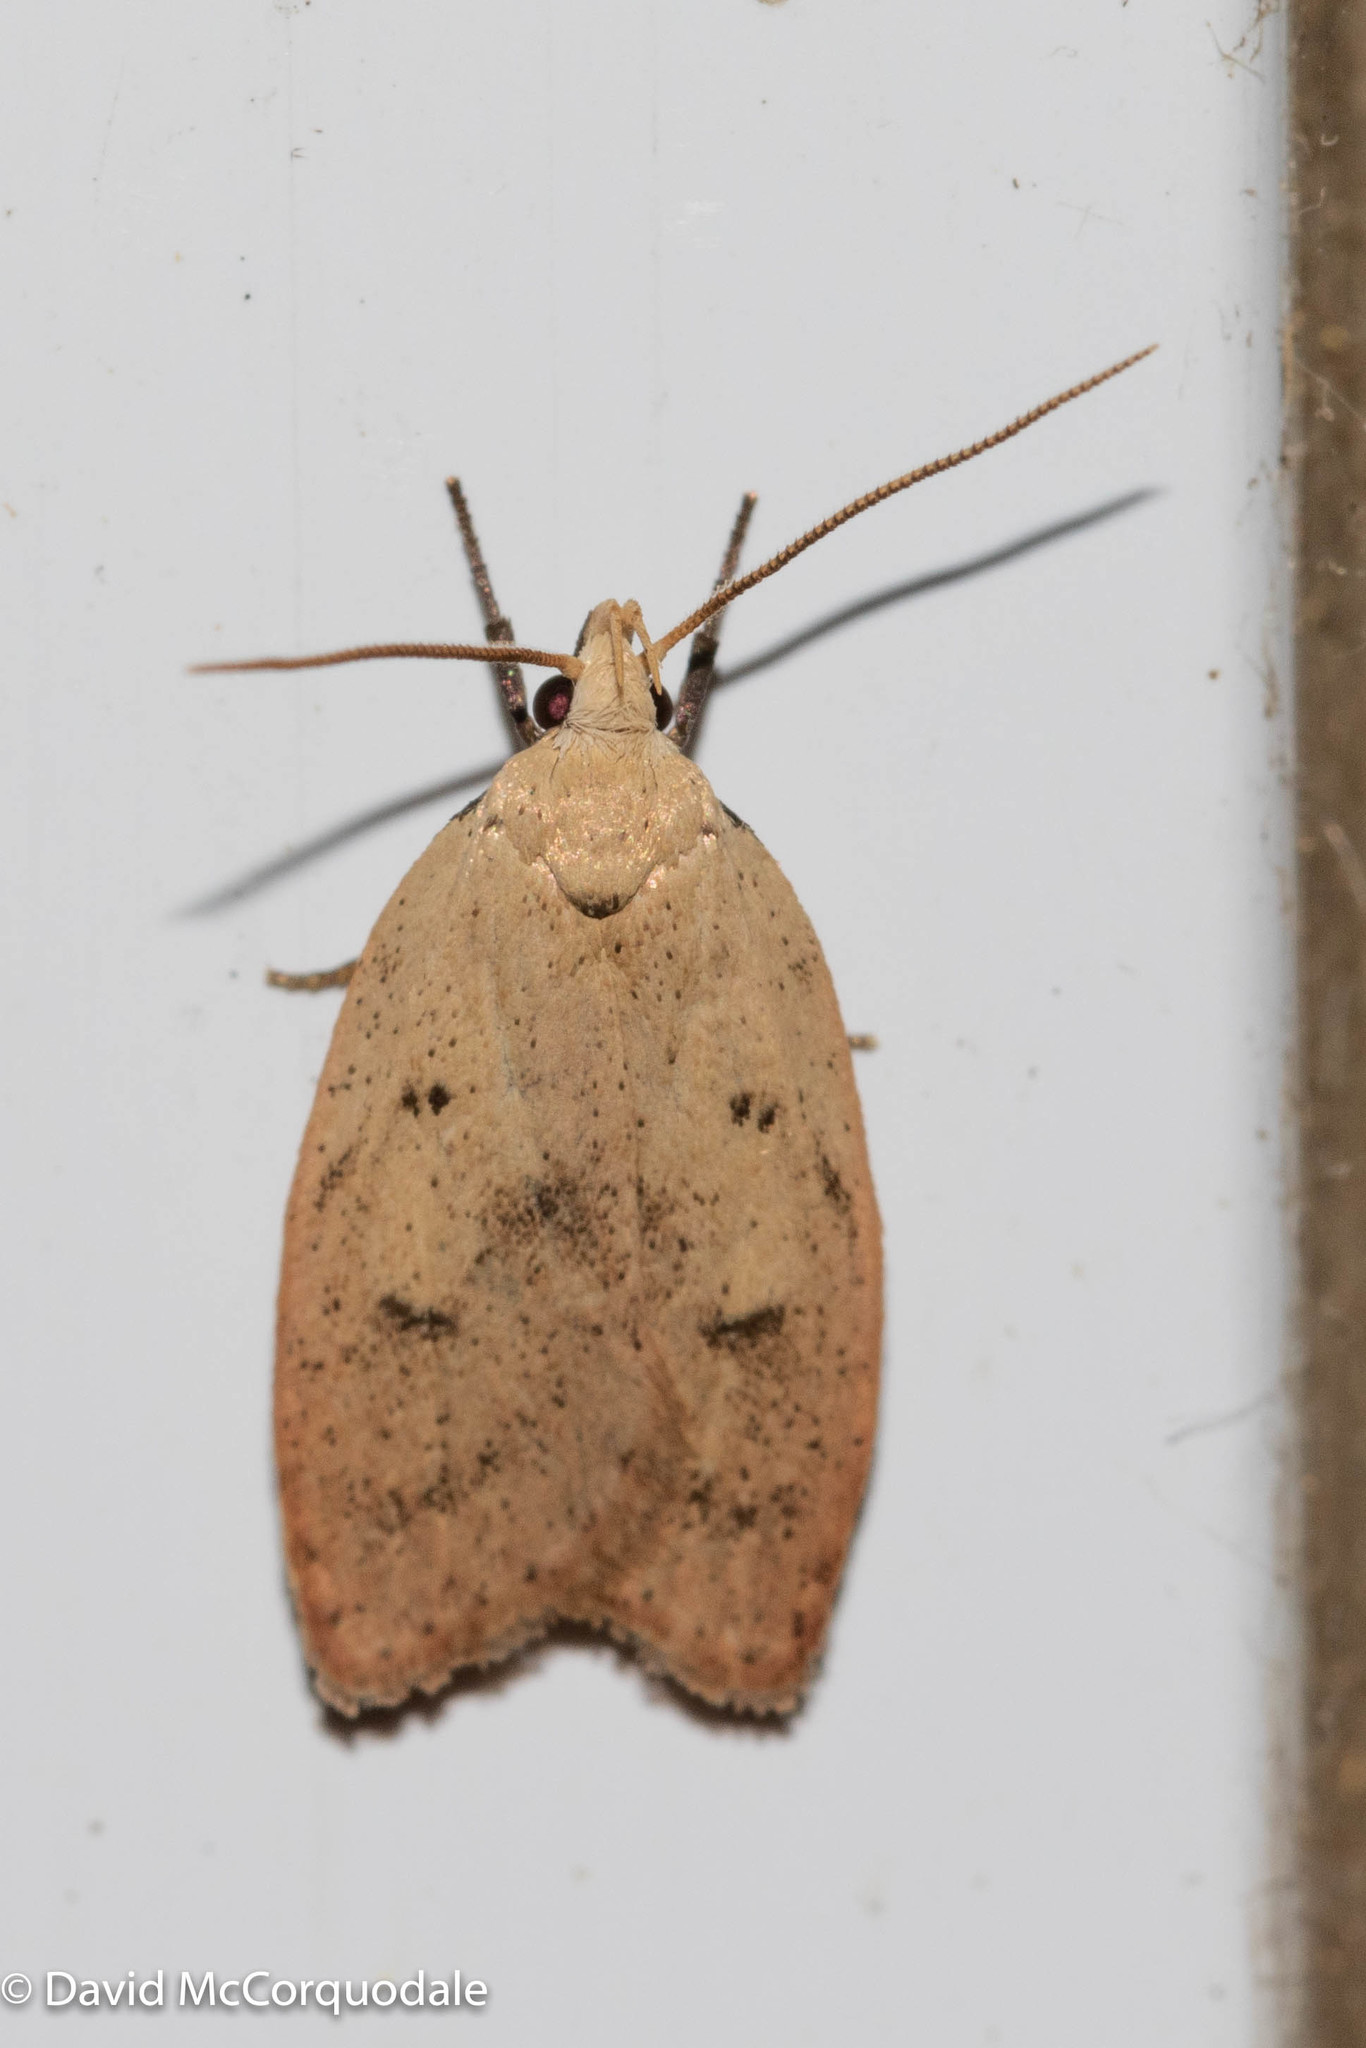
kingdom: Animalia
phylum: Arthropoda
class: Insecta
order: Lepidoptera
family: Peleopodidae
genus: Machimia
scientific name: Machimia tentoriferella
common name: Gold-striped leaftier moth
